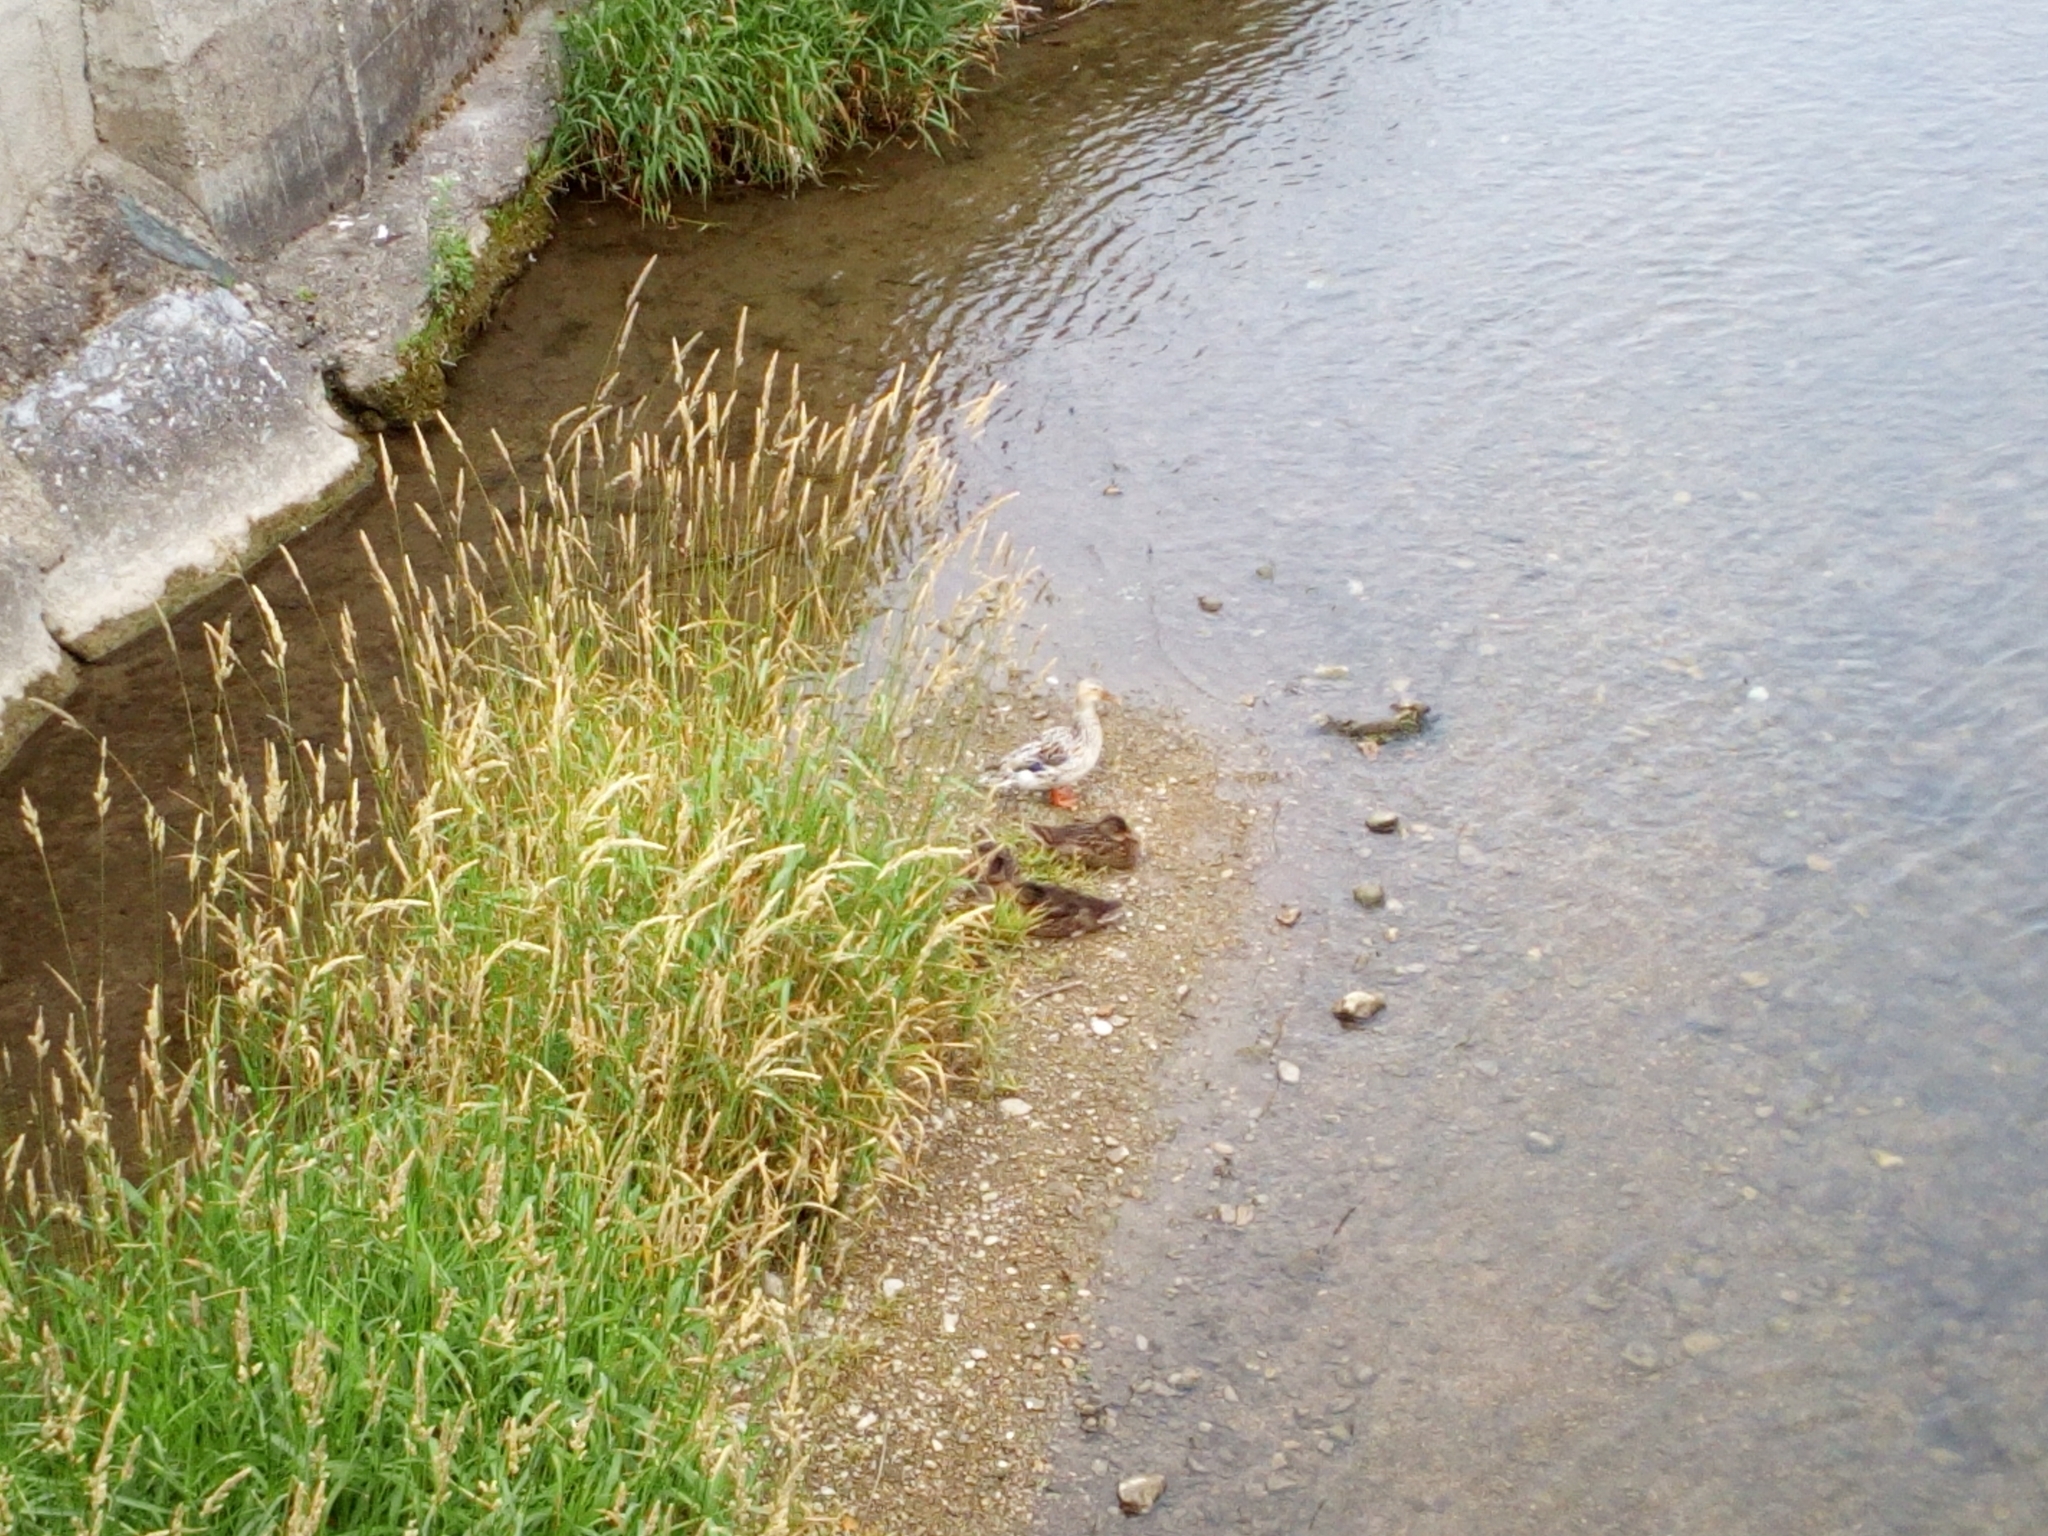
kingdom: Animalia
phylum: Chordata
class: Aves
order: Anseriformes
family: Anatidae
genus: Anas
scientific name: Anas platyrhynchos
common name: Mallard
